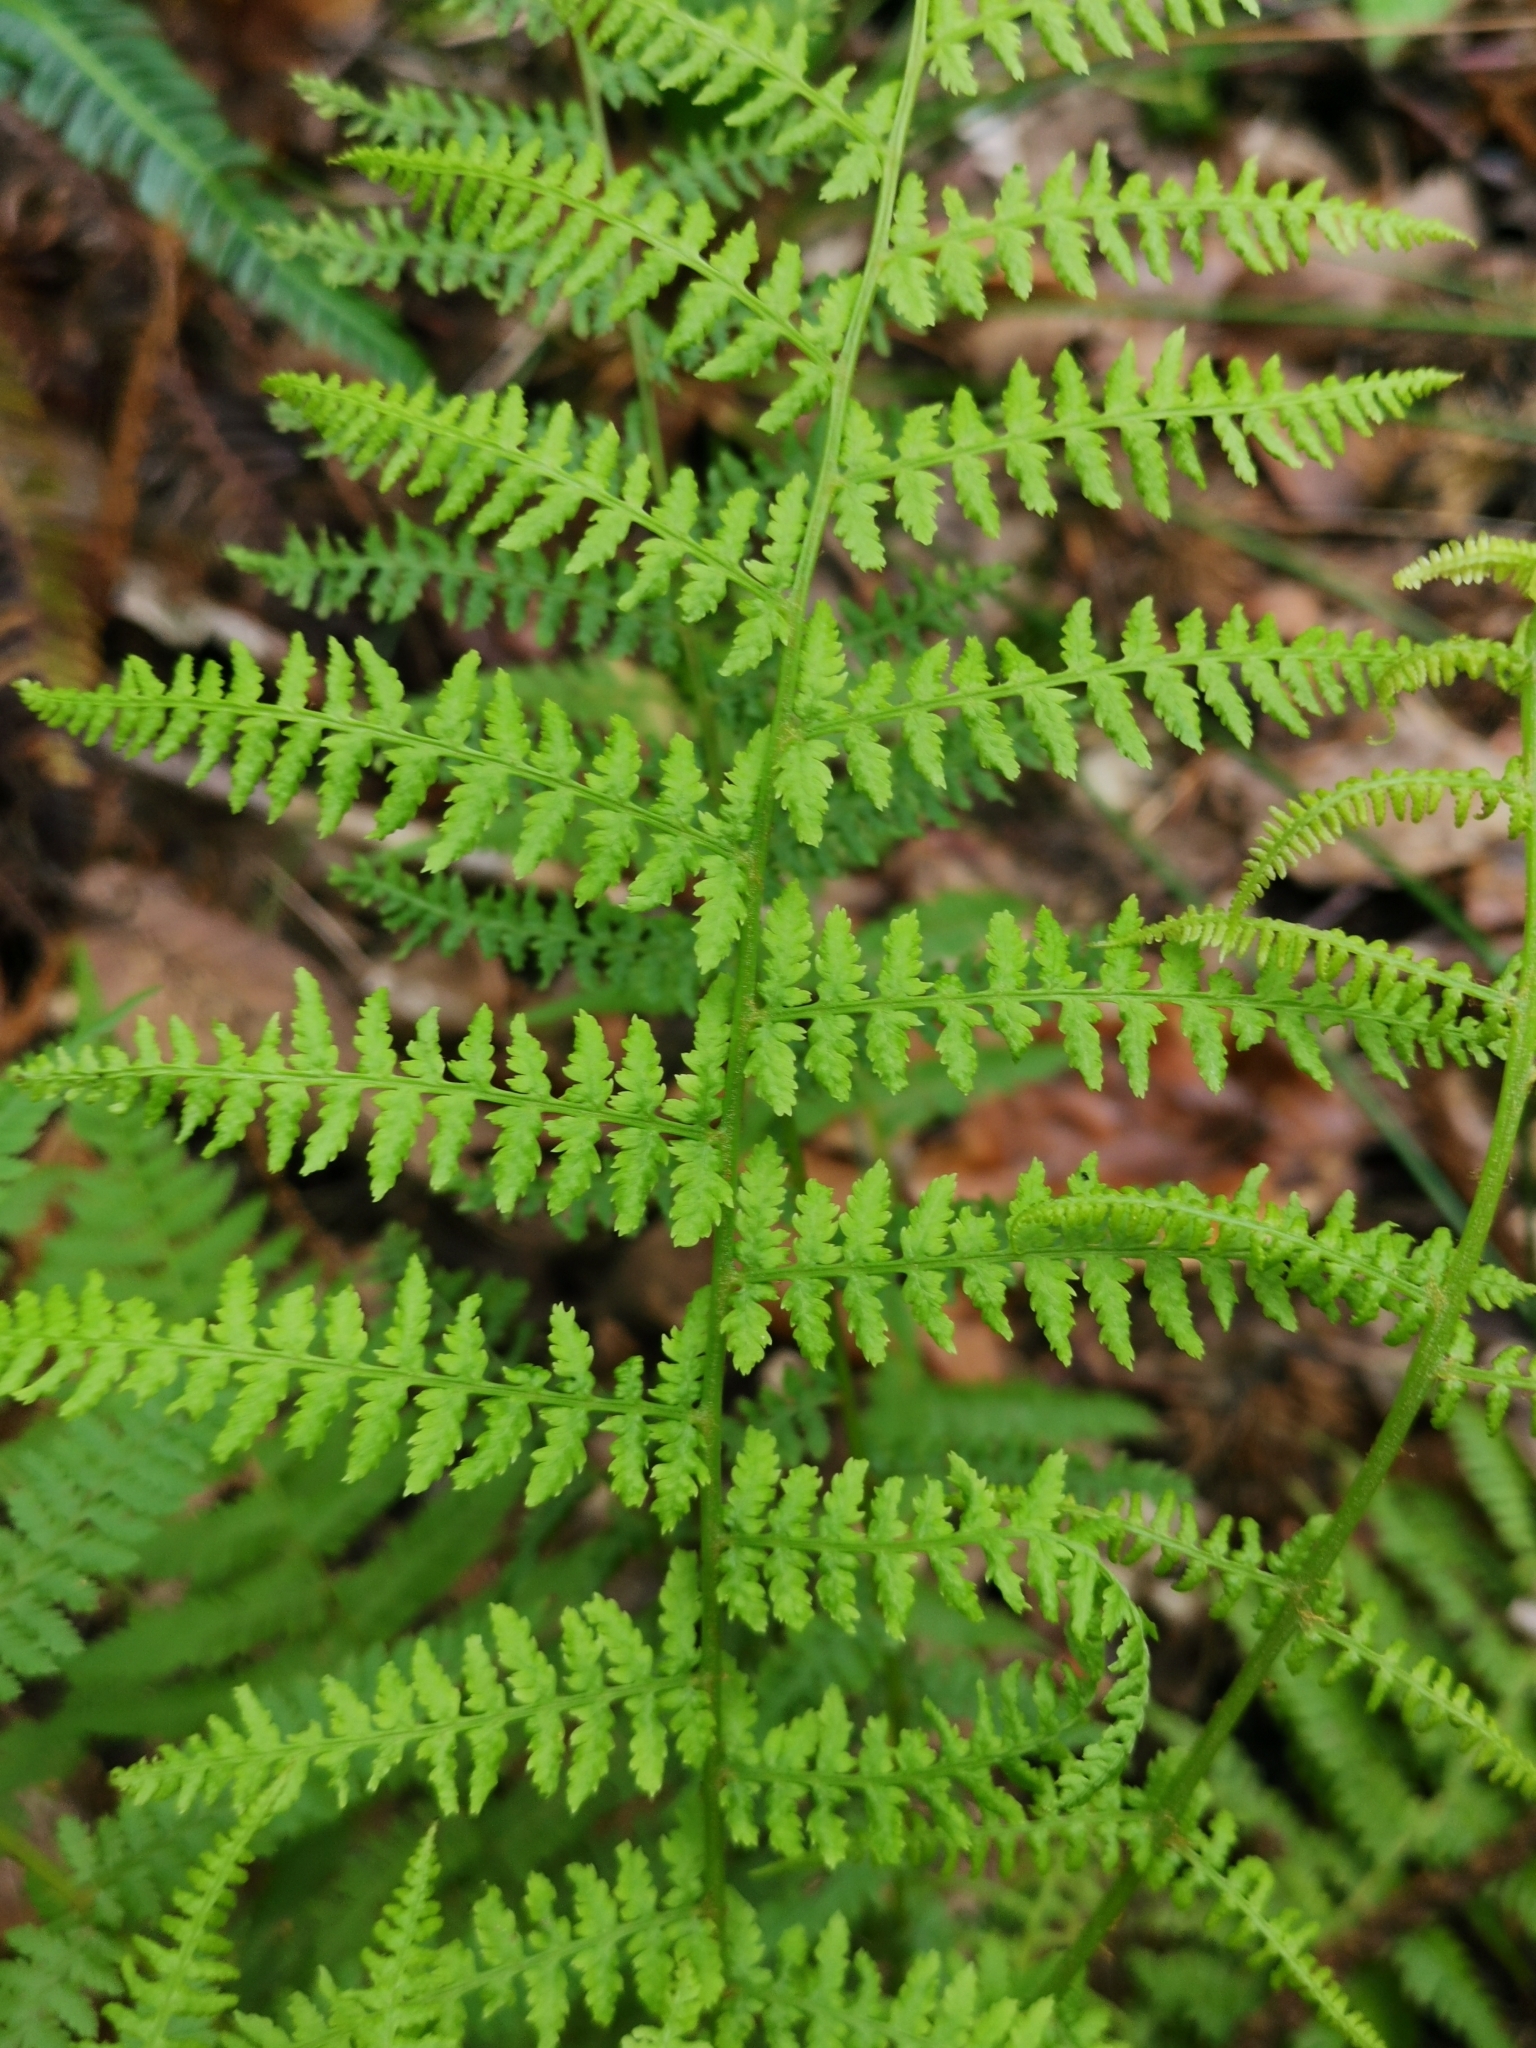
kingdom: Plantae
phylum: Tracheophyta
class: Polypodiopsida
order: Polypodiales
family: Athyriaceae
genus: Athyrium
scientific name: Athyrium filix-femina
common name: Lady fern
